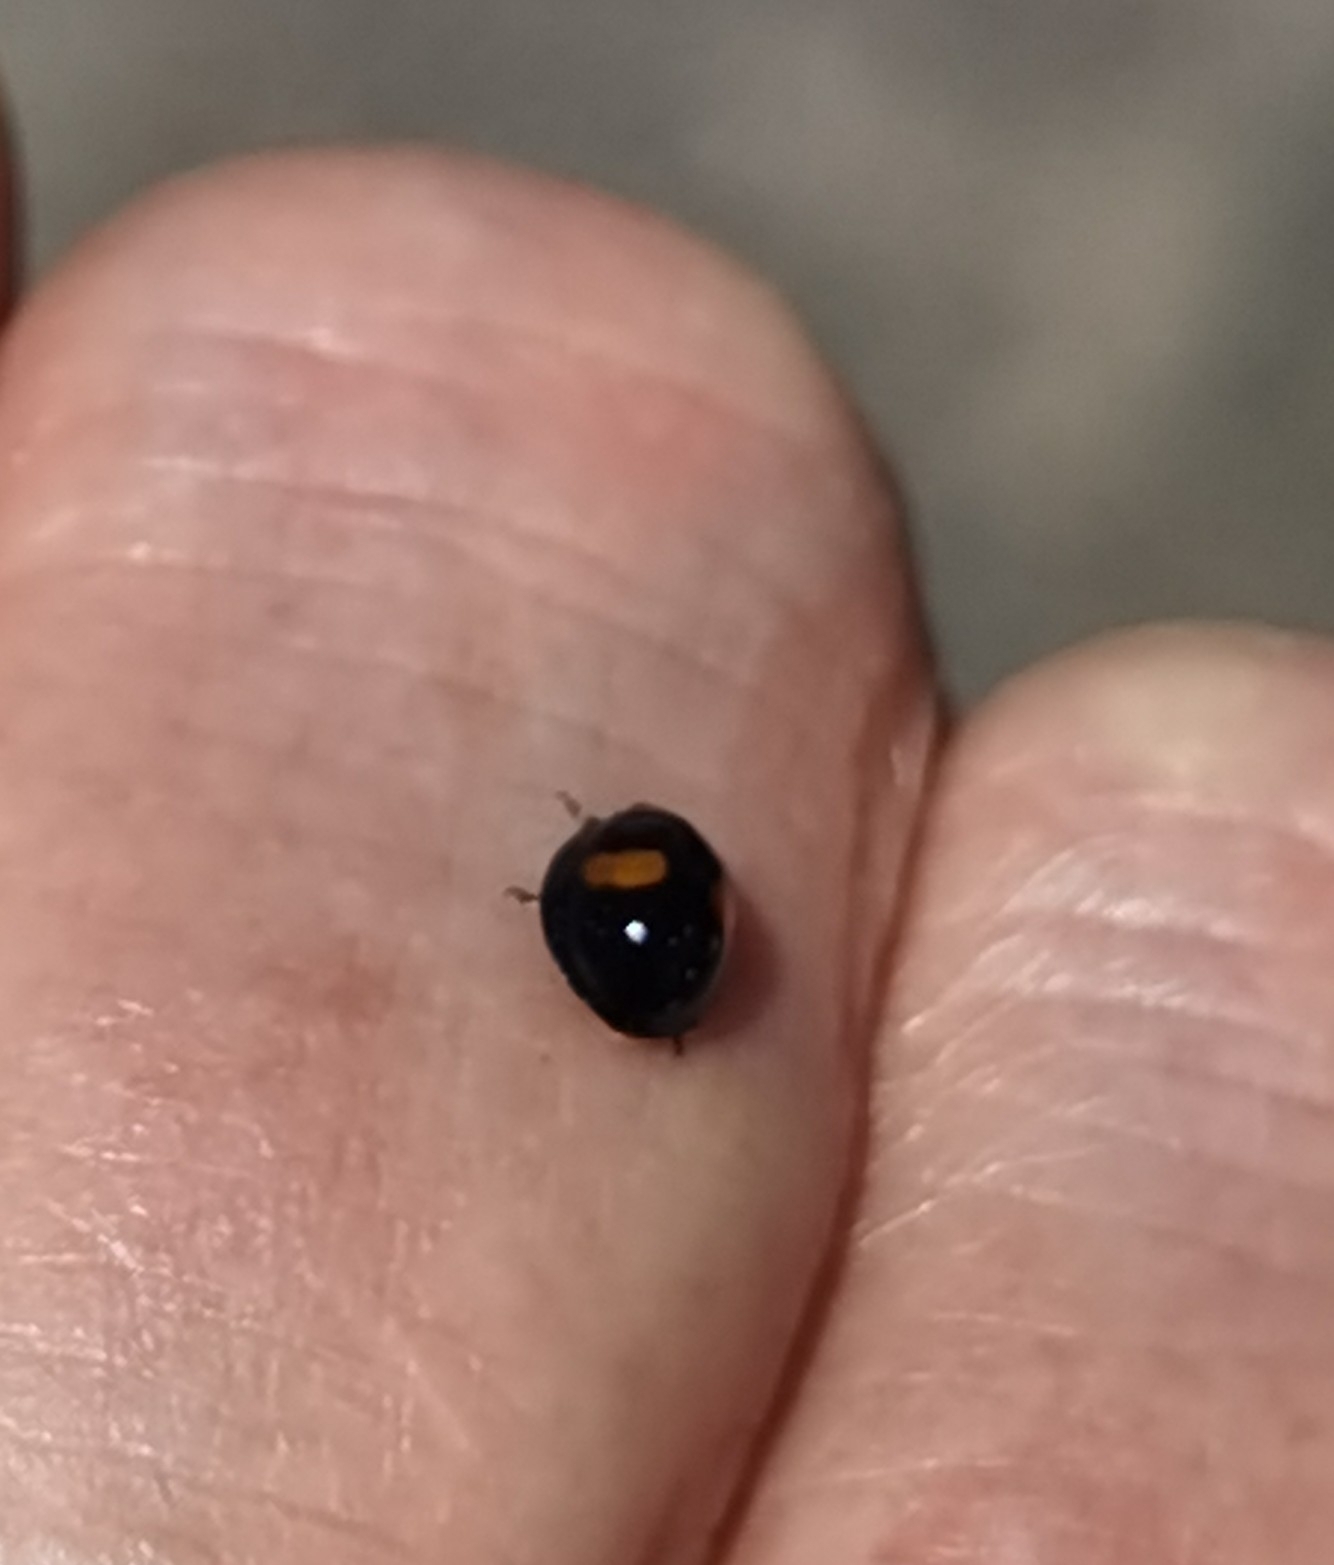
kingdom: Animalia
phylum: Arthropoda
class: Insecta
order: Coleoptera
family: Coccinellidae
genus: Chilocorus
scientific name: Chilocorus canariensis
